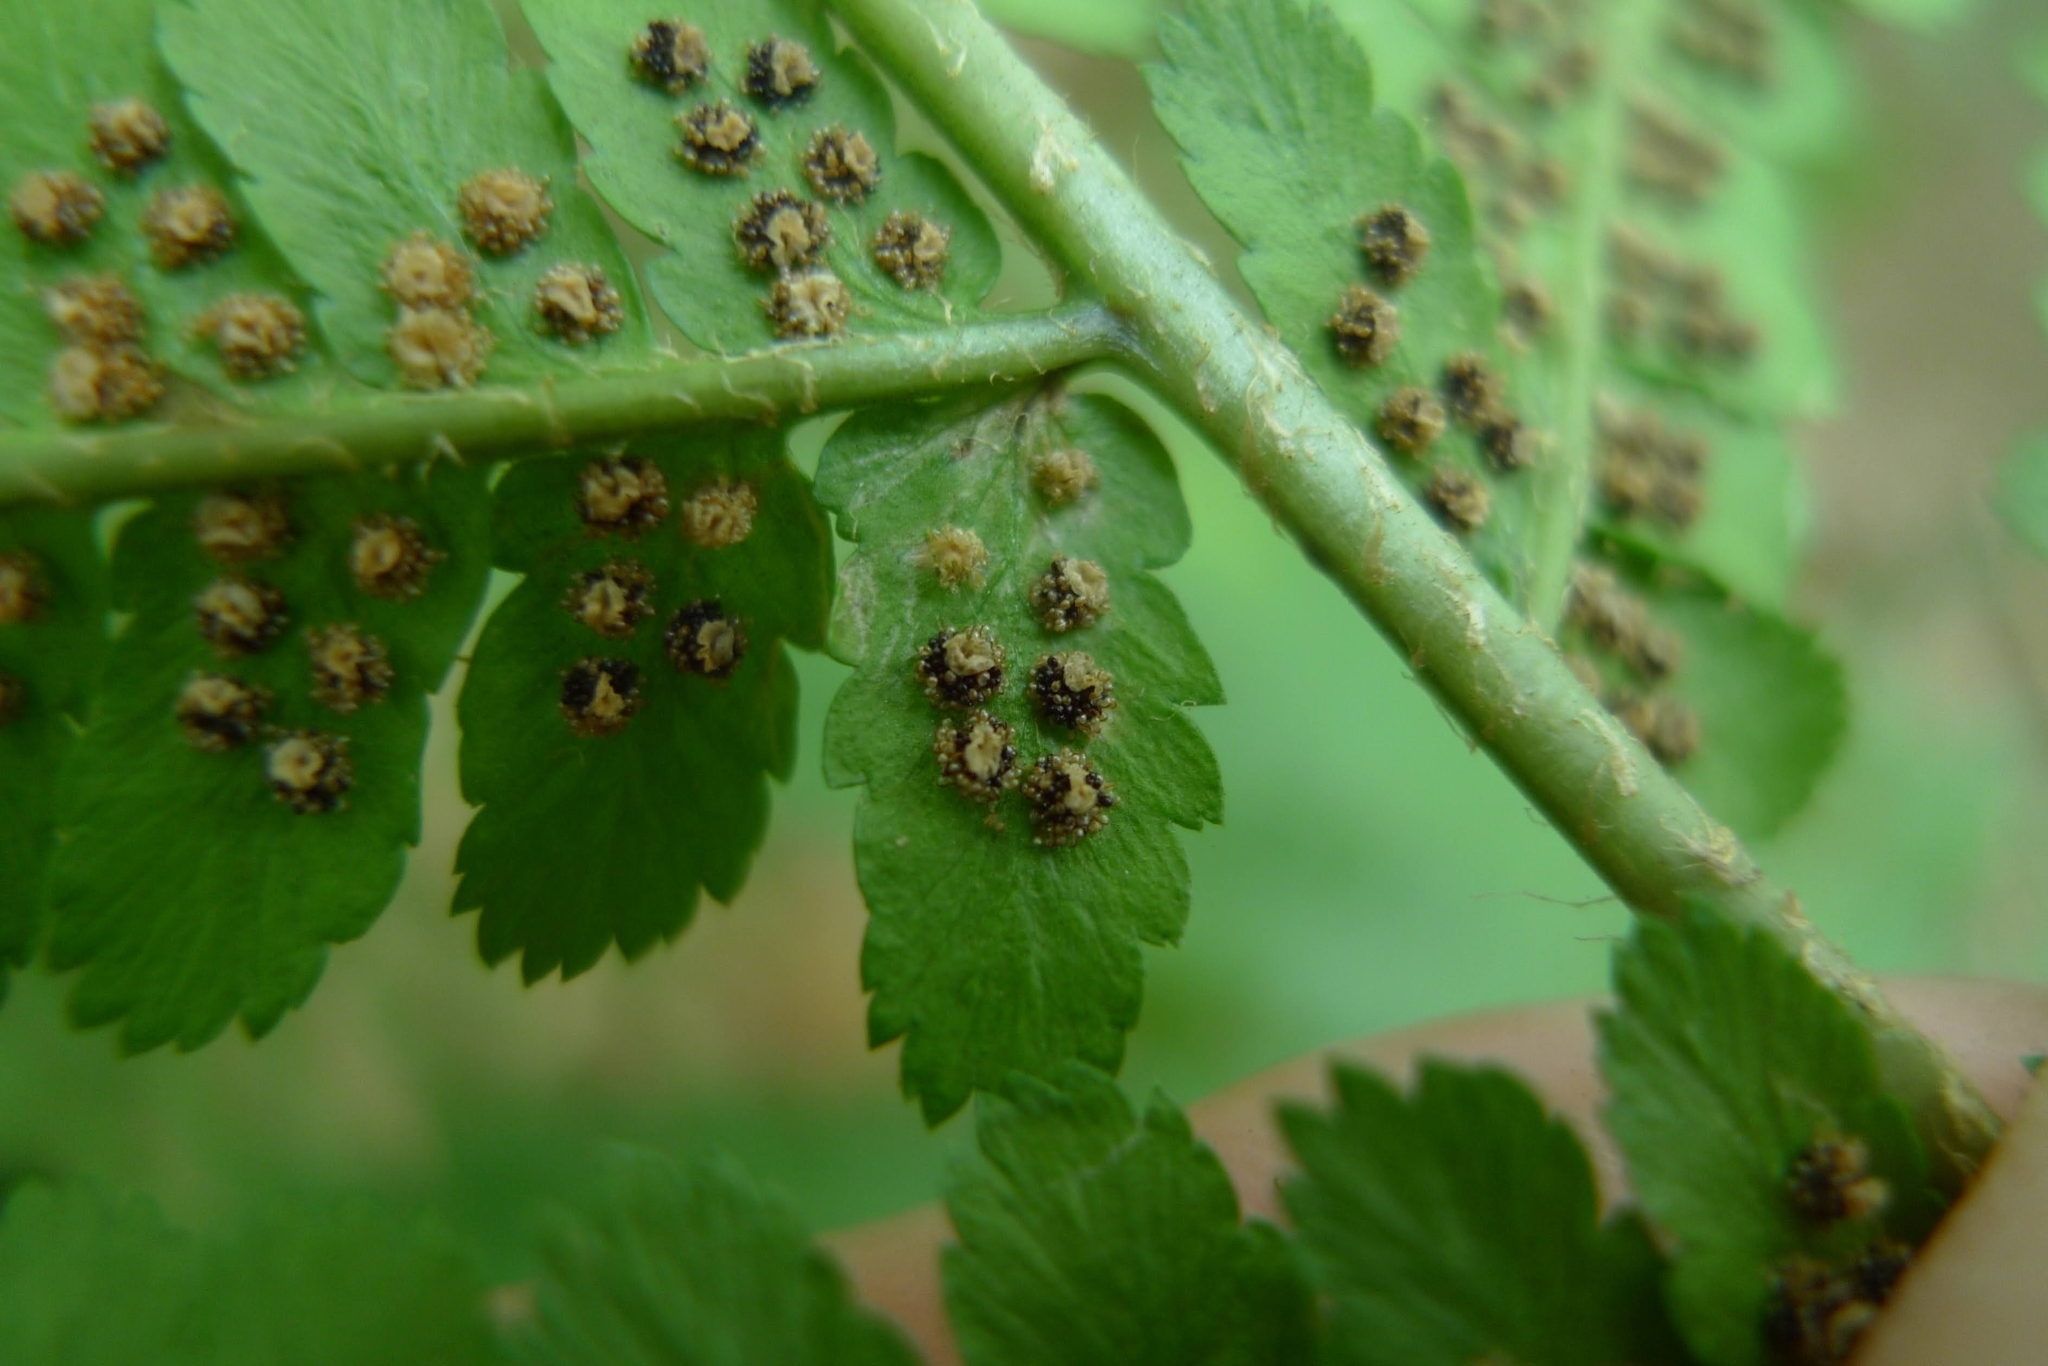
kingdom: Plantae
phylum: Tracheophyta
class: Polypodiopsida
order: Polypodiales
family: Dryopteridaceae
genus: Dryopteris
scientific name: Dryopteris filix-mas
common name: Male fern
